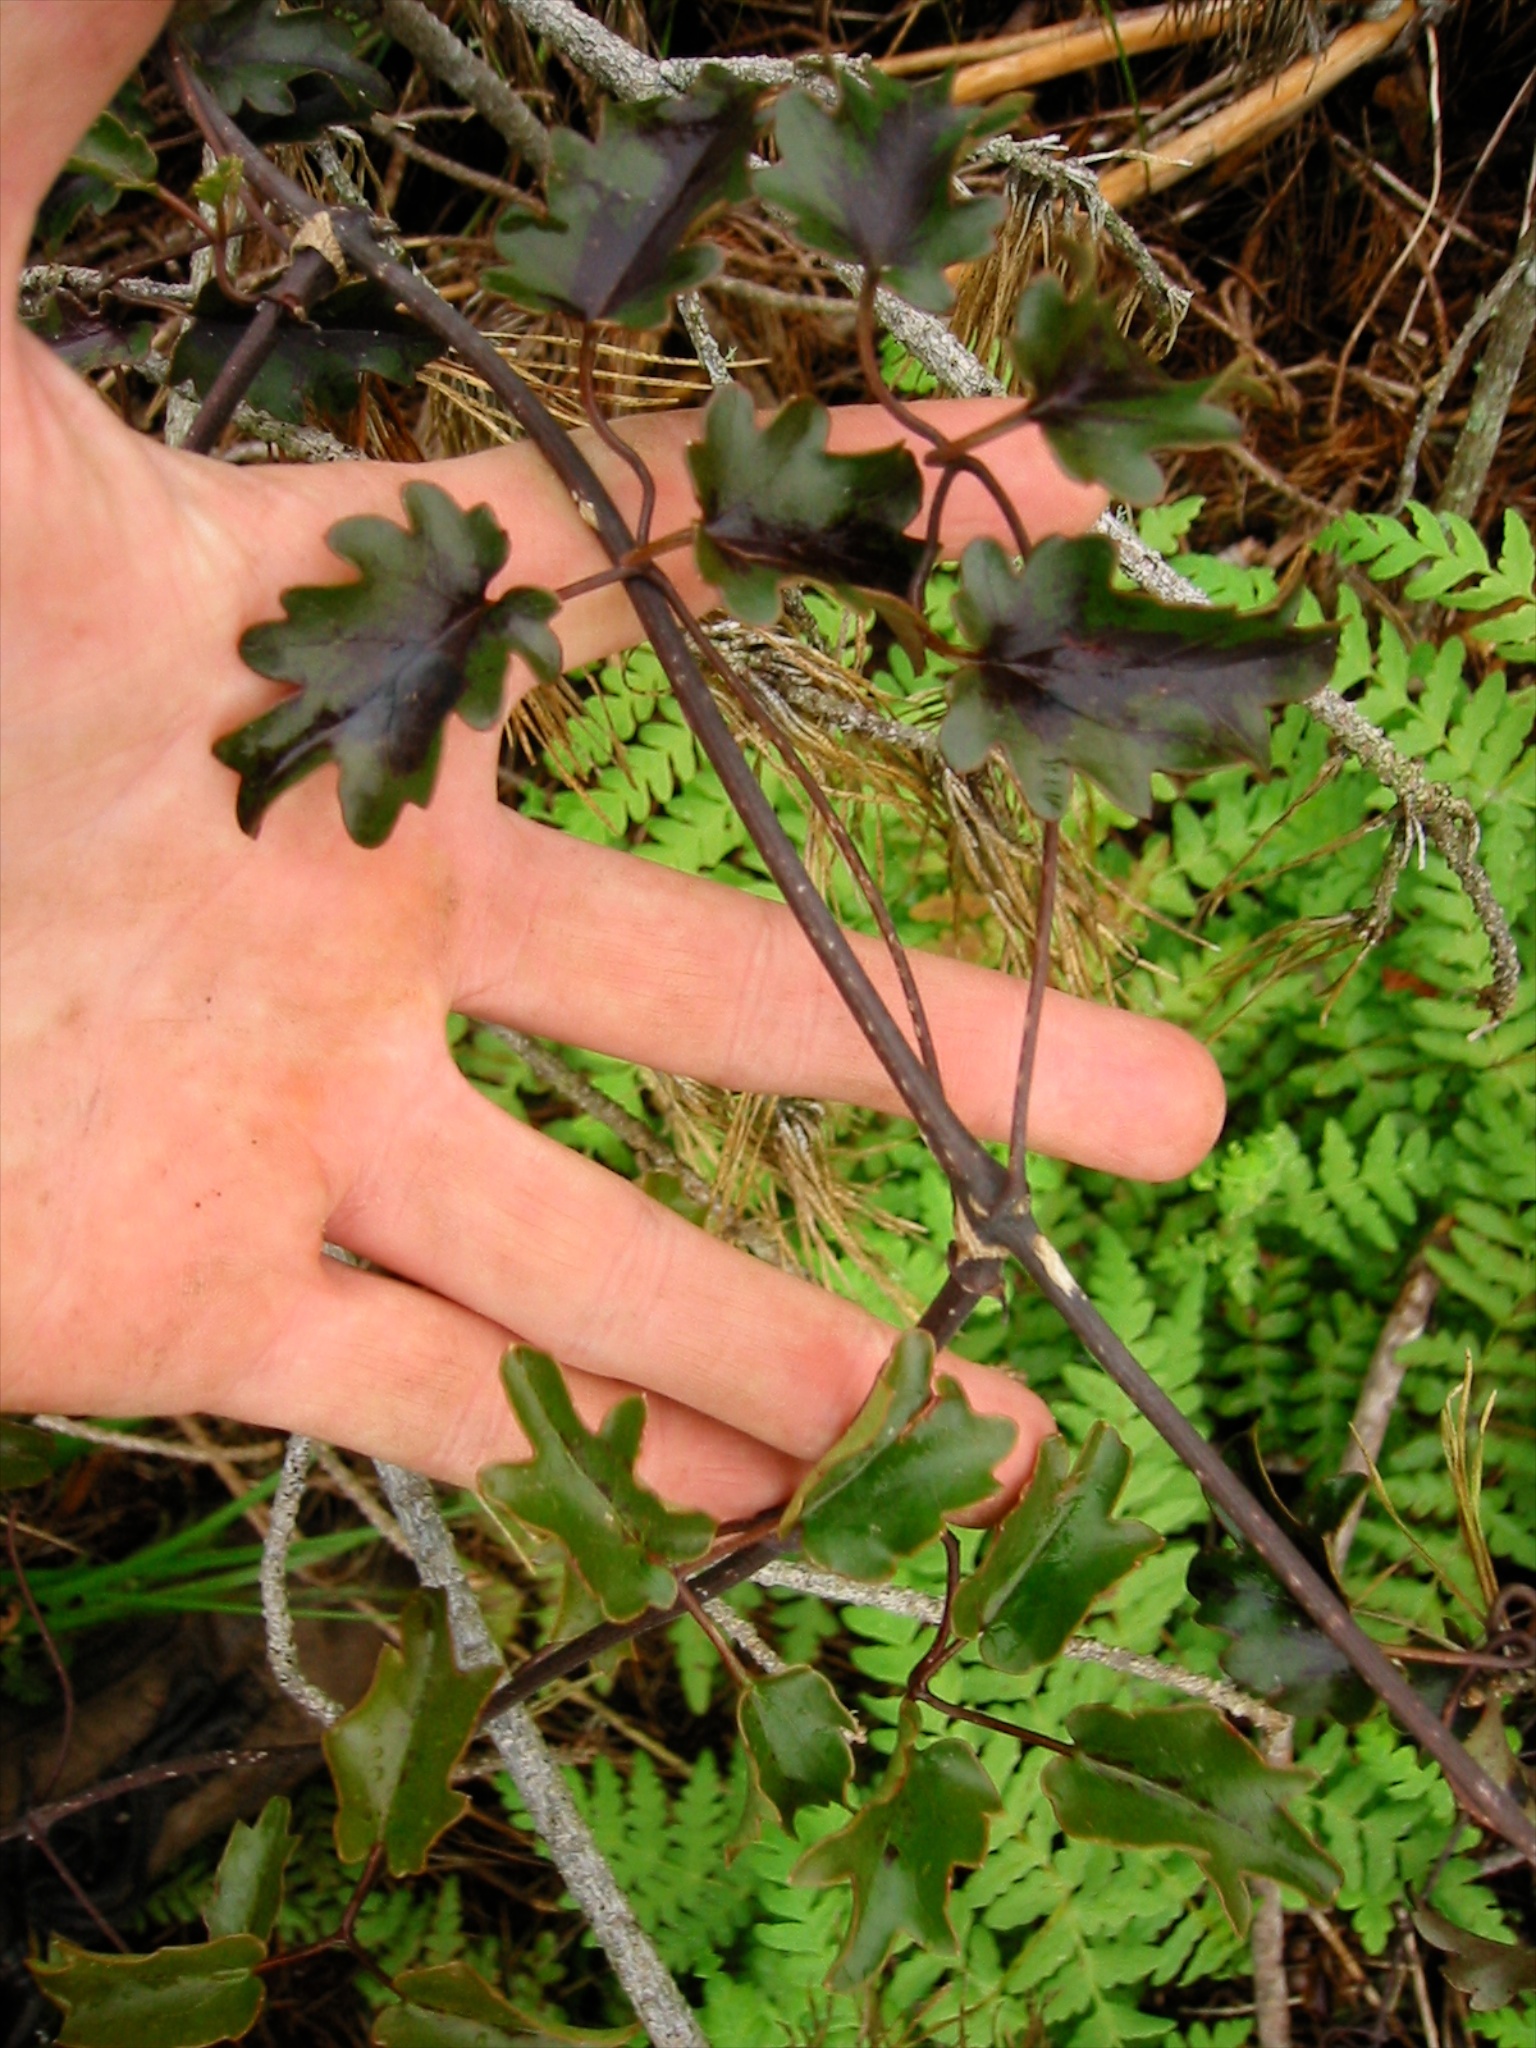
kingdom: Plantae
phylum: Tracheophyta
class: Magnoliopsida
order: Ranunculales
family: Ranunculaceae
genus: Clematis
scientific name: Clematis paniculata
